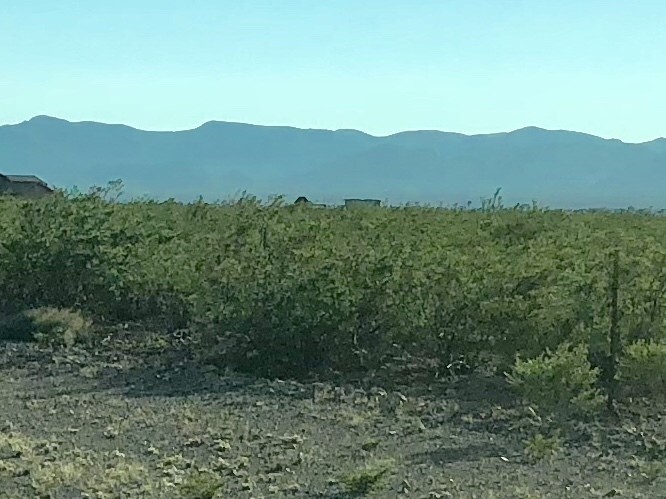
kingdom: Plantae
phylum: Tracheophyta
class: Magnoliopsida
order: Zygophyllales
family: Zygophyllaceae
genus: Larrea
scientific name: Larrea tridentata
